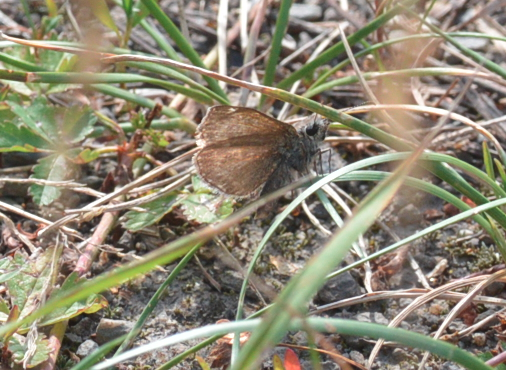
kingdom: Animalia
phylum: Arthropoda
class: Insecta
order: Lepidoptera
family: Hesperiidae
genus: Erynnis
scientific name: Erynnis tages
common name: Dingy skipper
